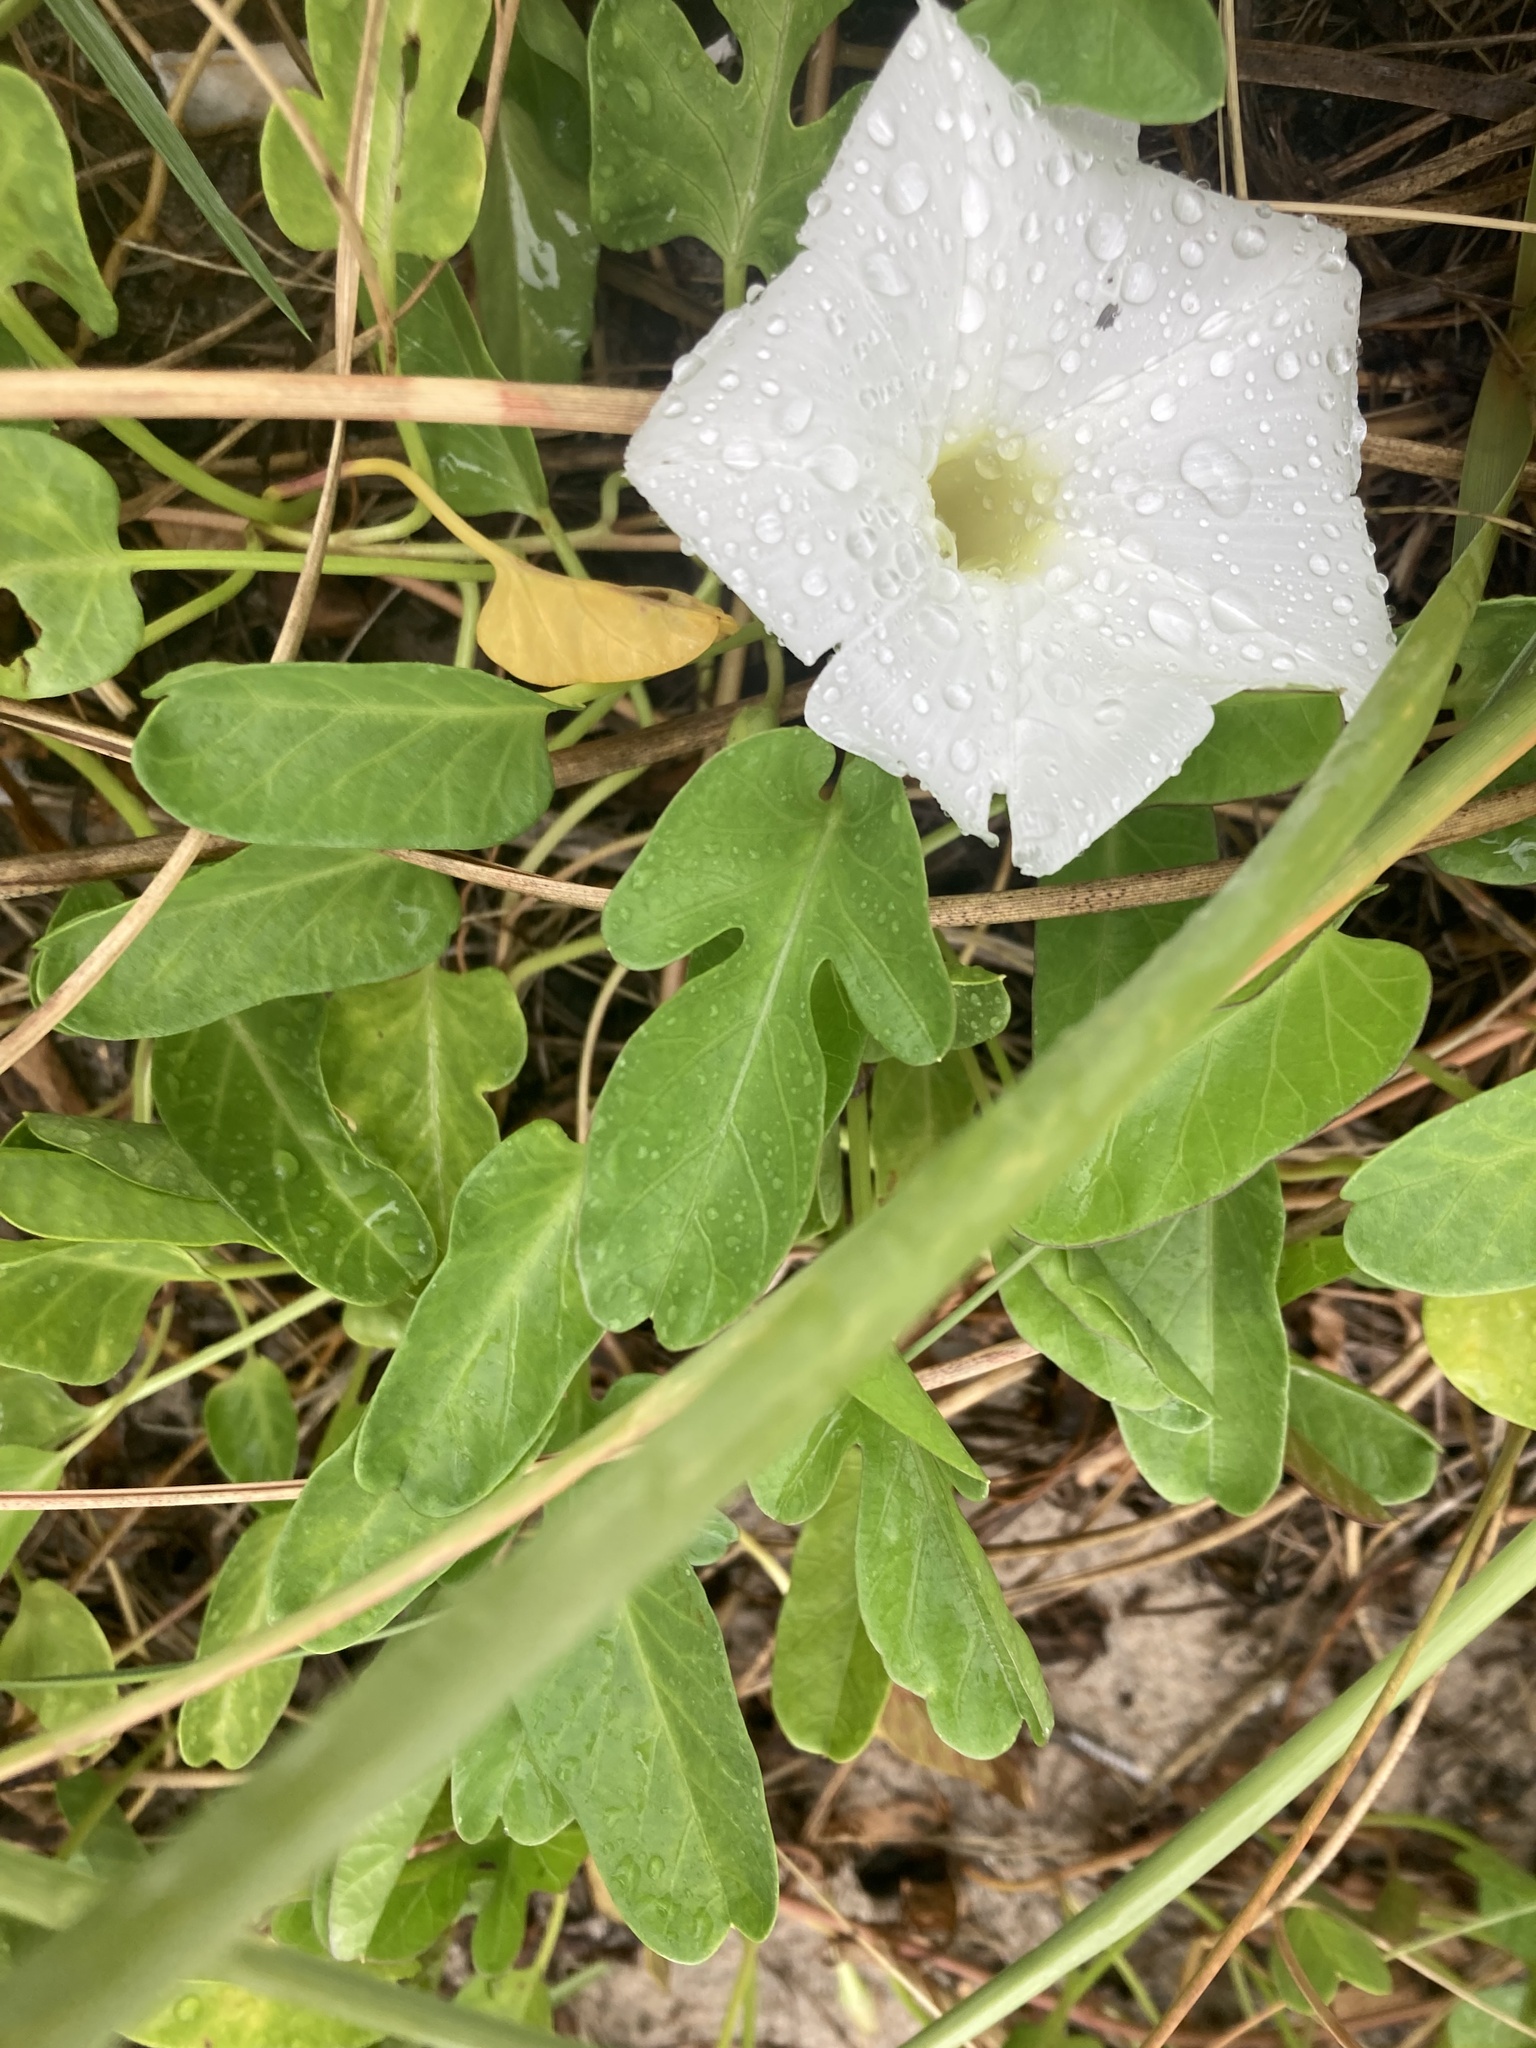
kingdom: Plantae
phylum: Tracheophyta
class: Magnoliopsida
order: Solanales
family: Convolvulaceae
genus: Ipomoea
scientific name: Ipomoea imperati
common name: Fiddle-leaf morning-glory
